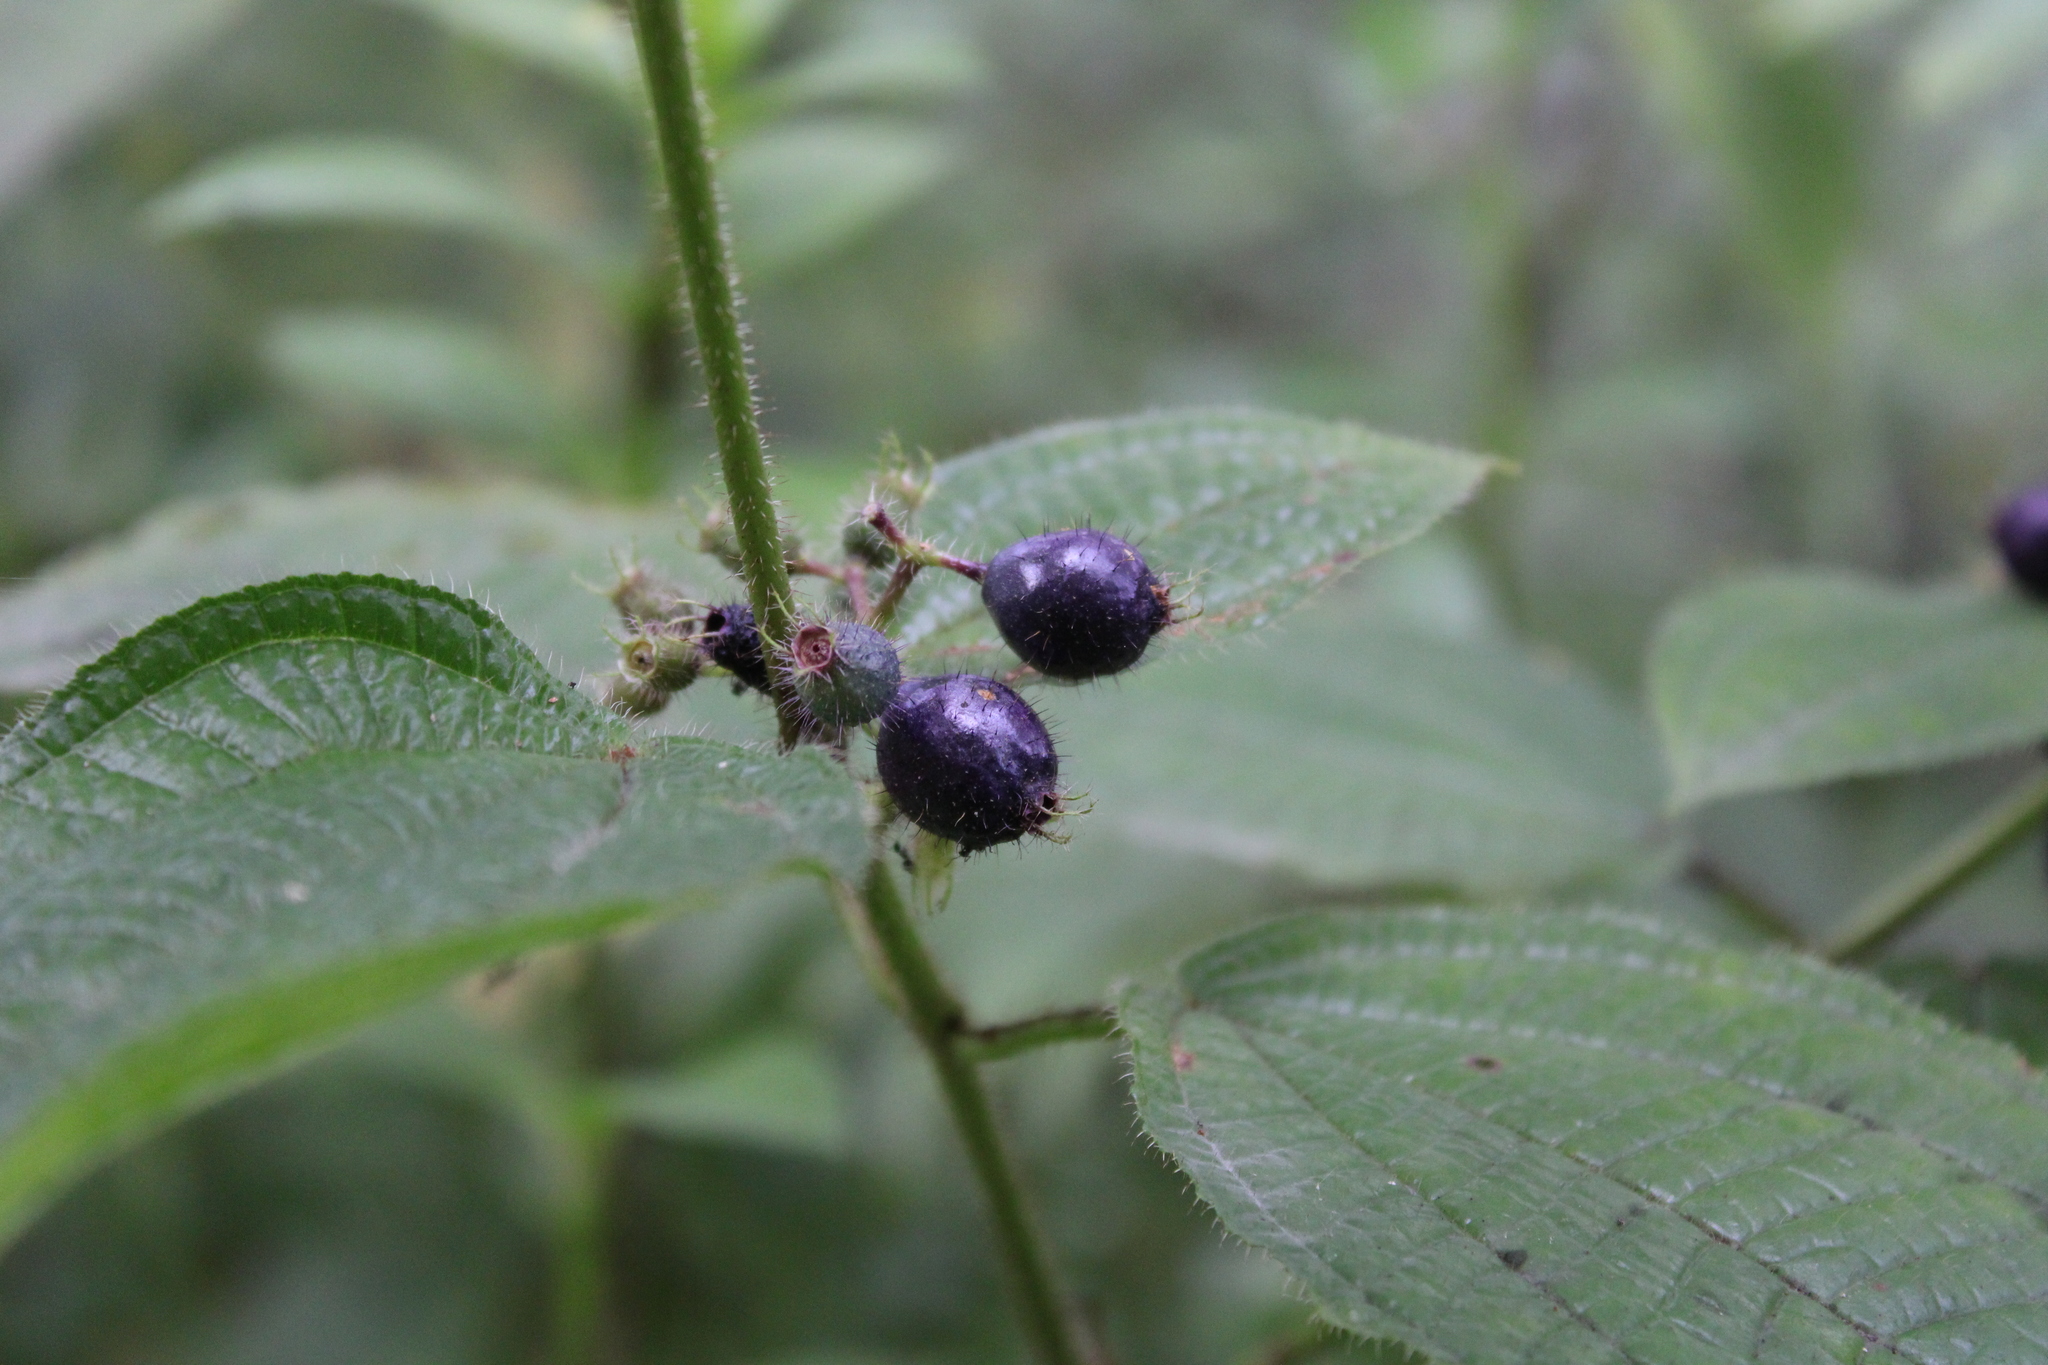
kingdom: Plantae
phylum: Tracheophyta
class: Magnoliopsida
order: Myrtales
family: Melastomataceae
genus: Miconia
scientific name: Miconia crenata
